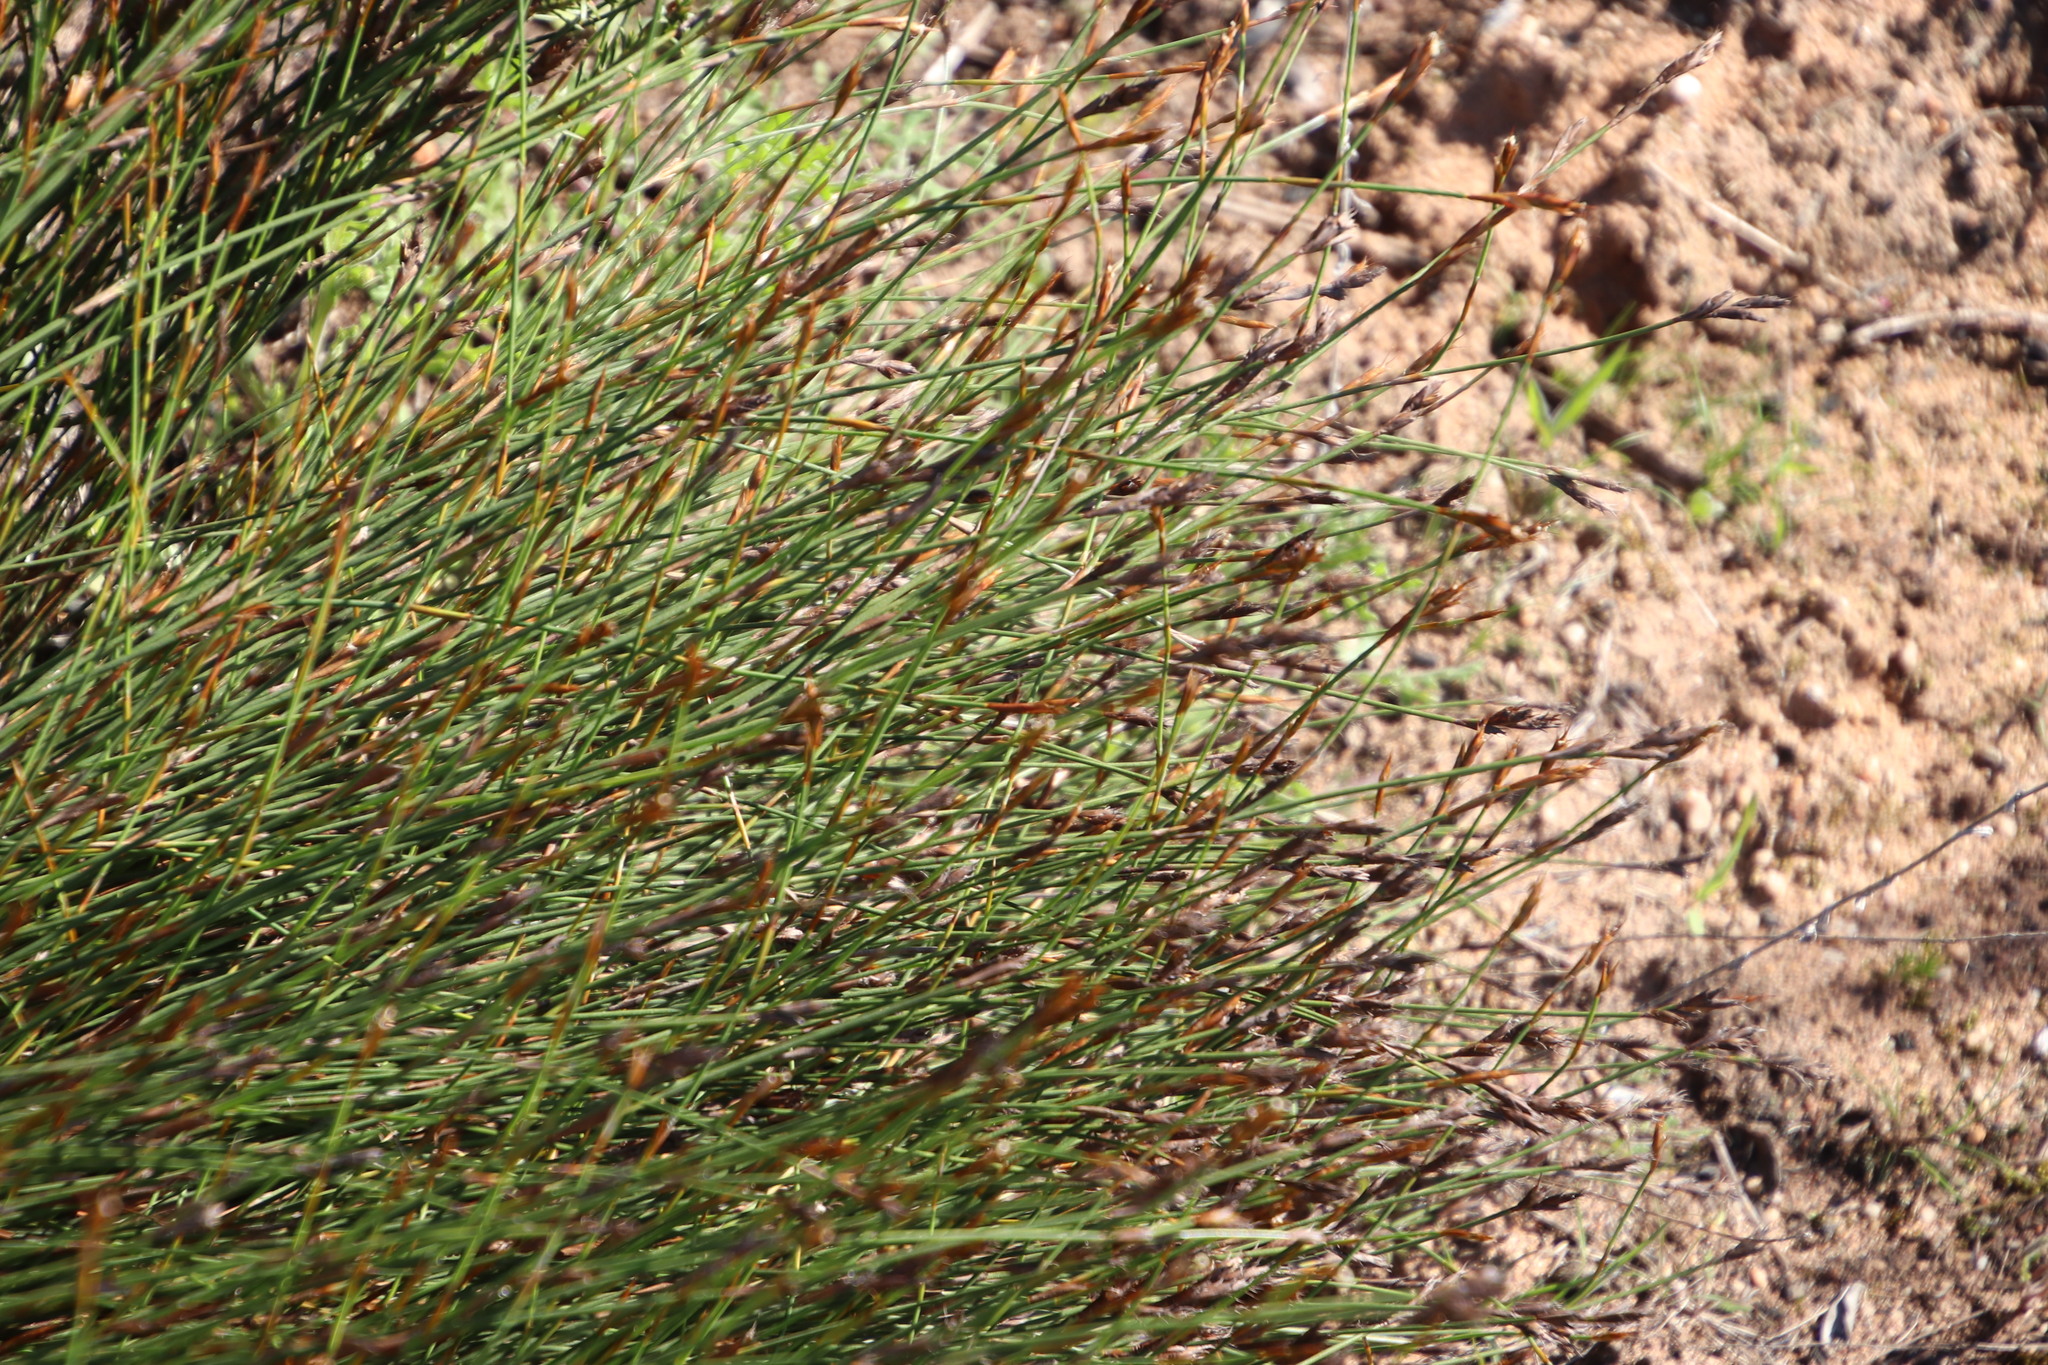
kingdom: Plantae
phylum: Tracheophyta
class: Liliopsida
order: Poales
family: Restionaceae
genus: Restio
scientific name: Restio capensis
